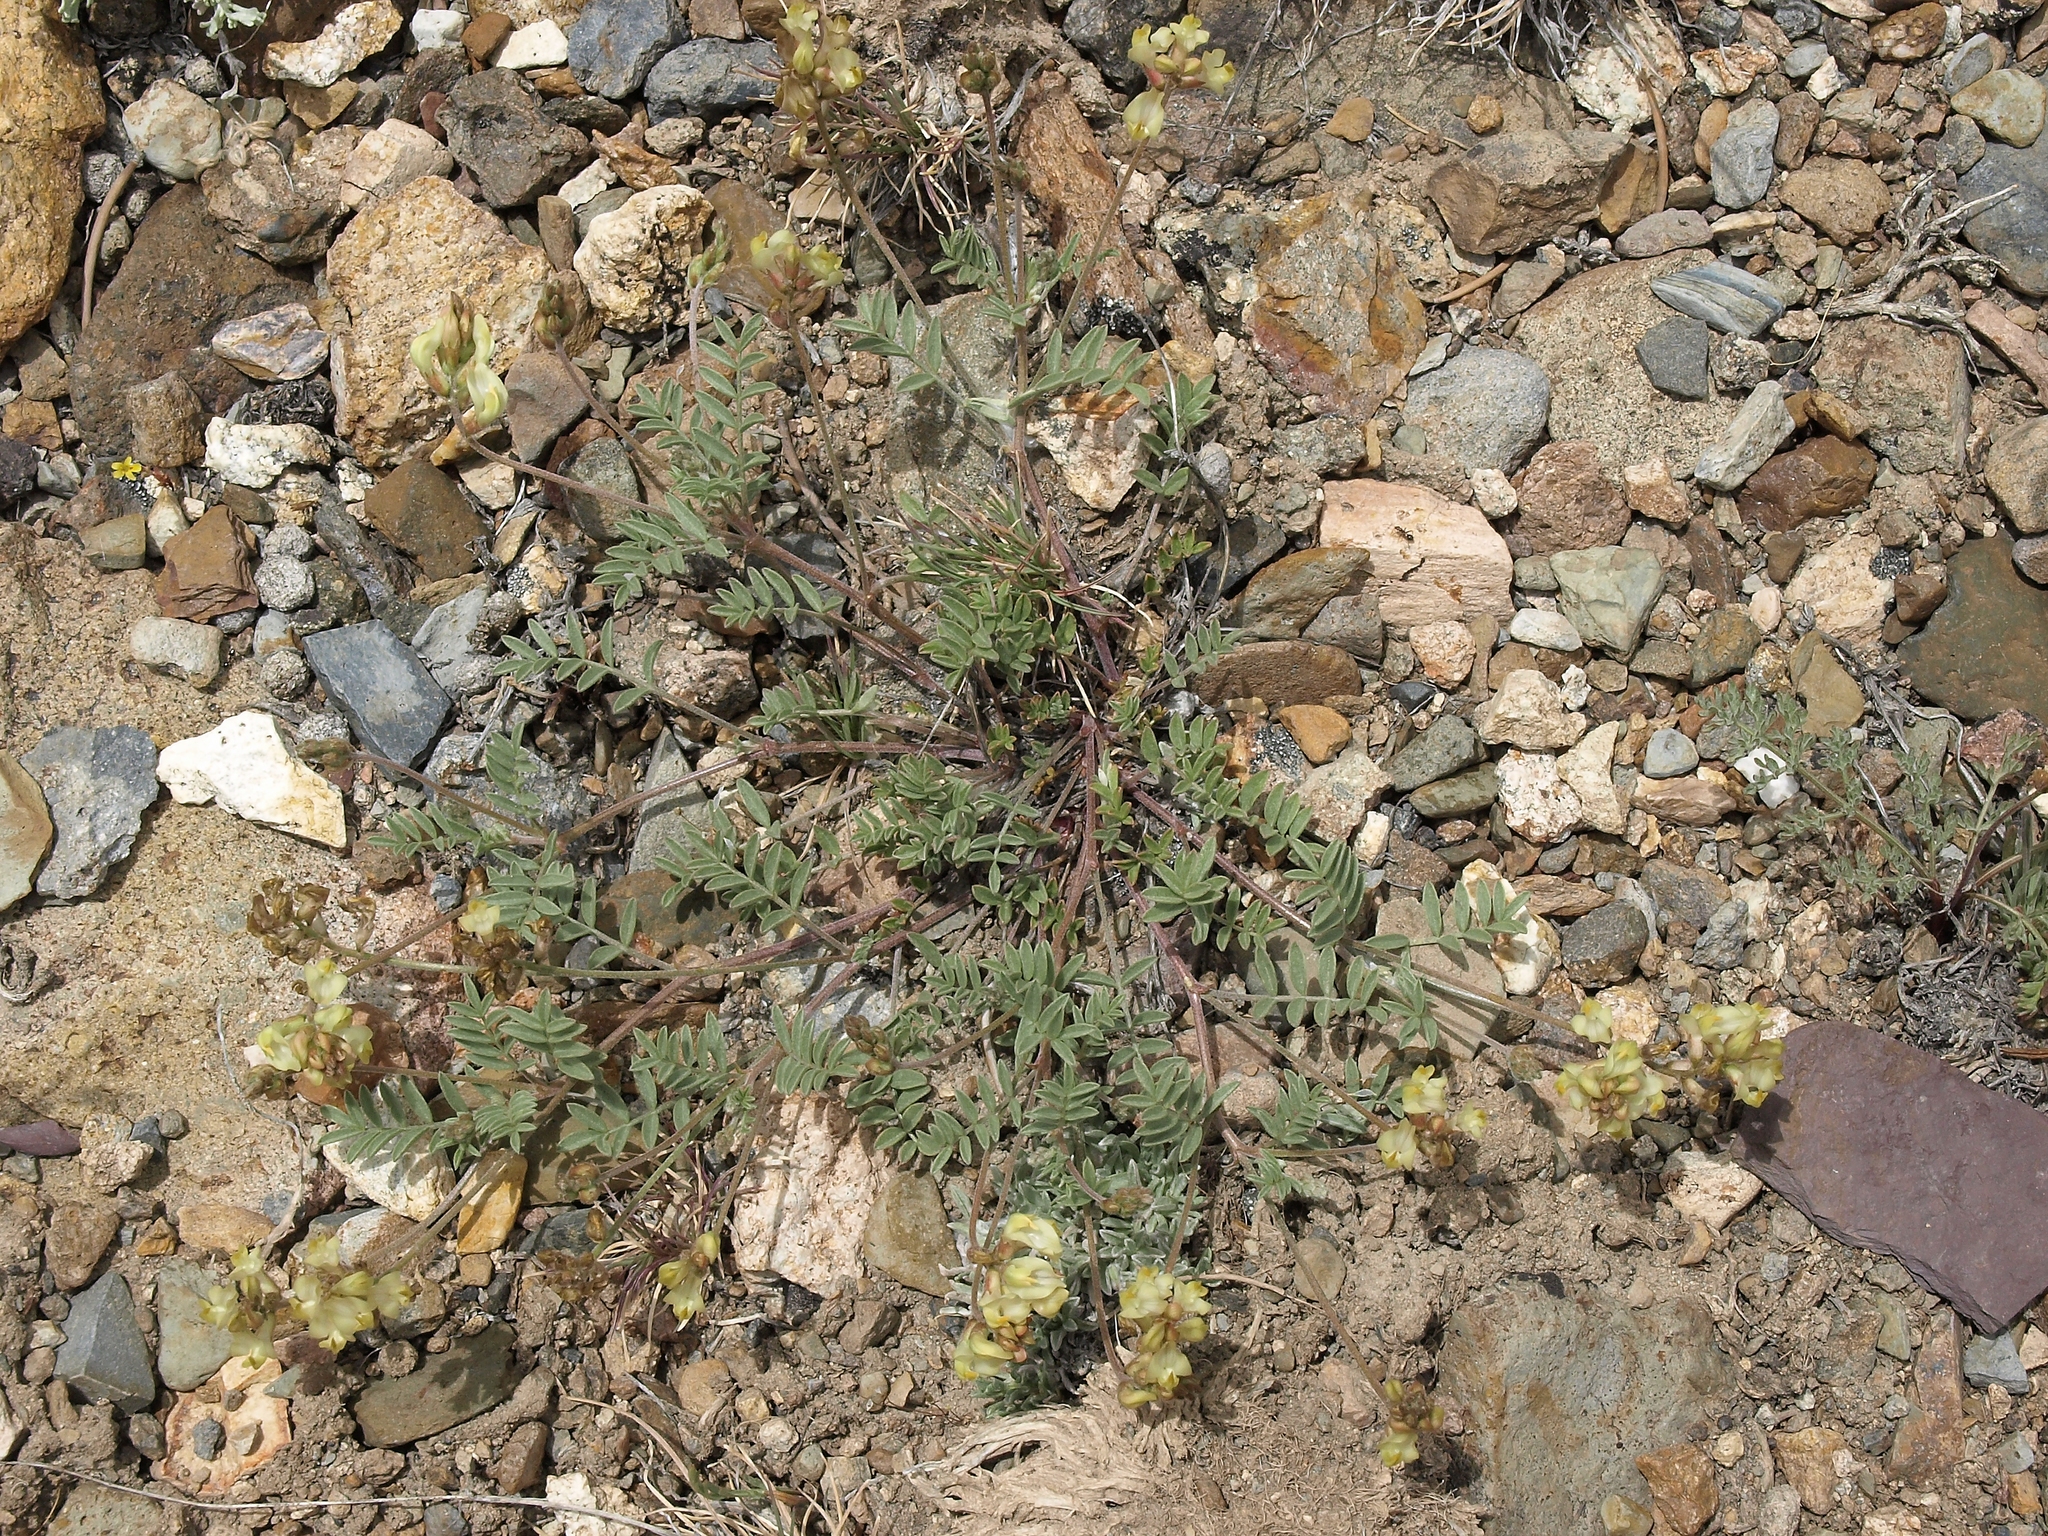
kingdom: Plantae
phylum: Tracheophyta
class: Magnoliopsida
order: Fabales
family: Fabaceae
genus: Astragalus
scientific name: Astragalus obscurus
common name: Arcane milk-vetch
